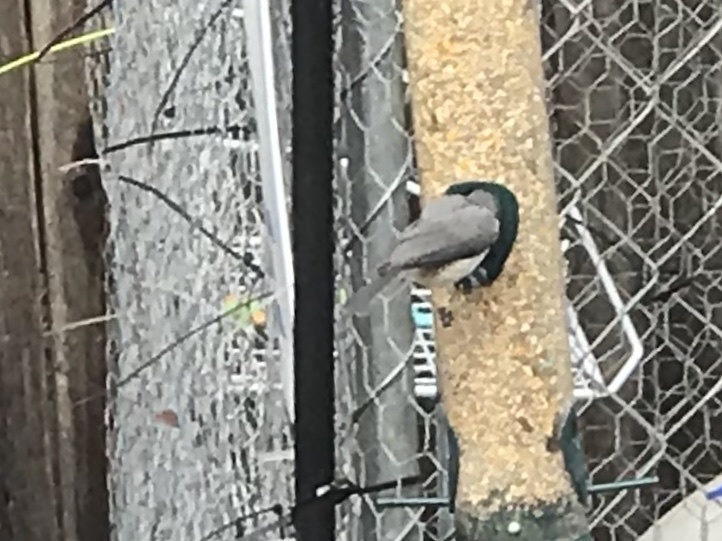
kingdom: Animalia
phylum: Chordata
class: Aves
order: Passeriformes
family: Paridae
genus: Baeolophus
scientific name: Baeolophus bicolor
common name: Tufted titmouse
